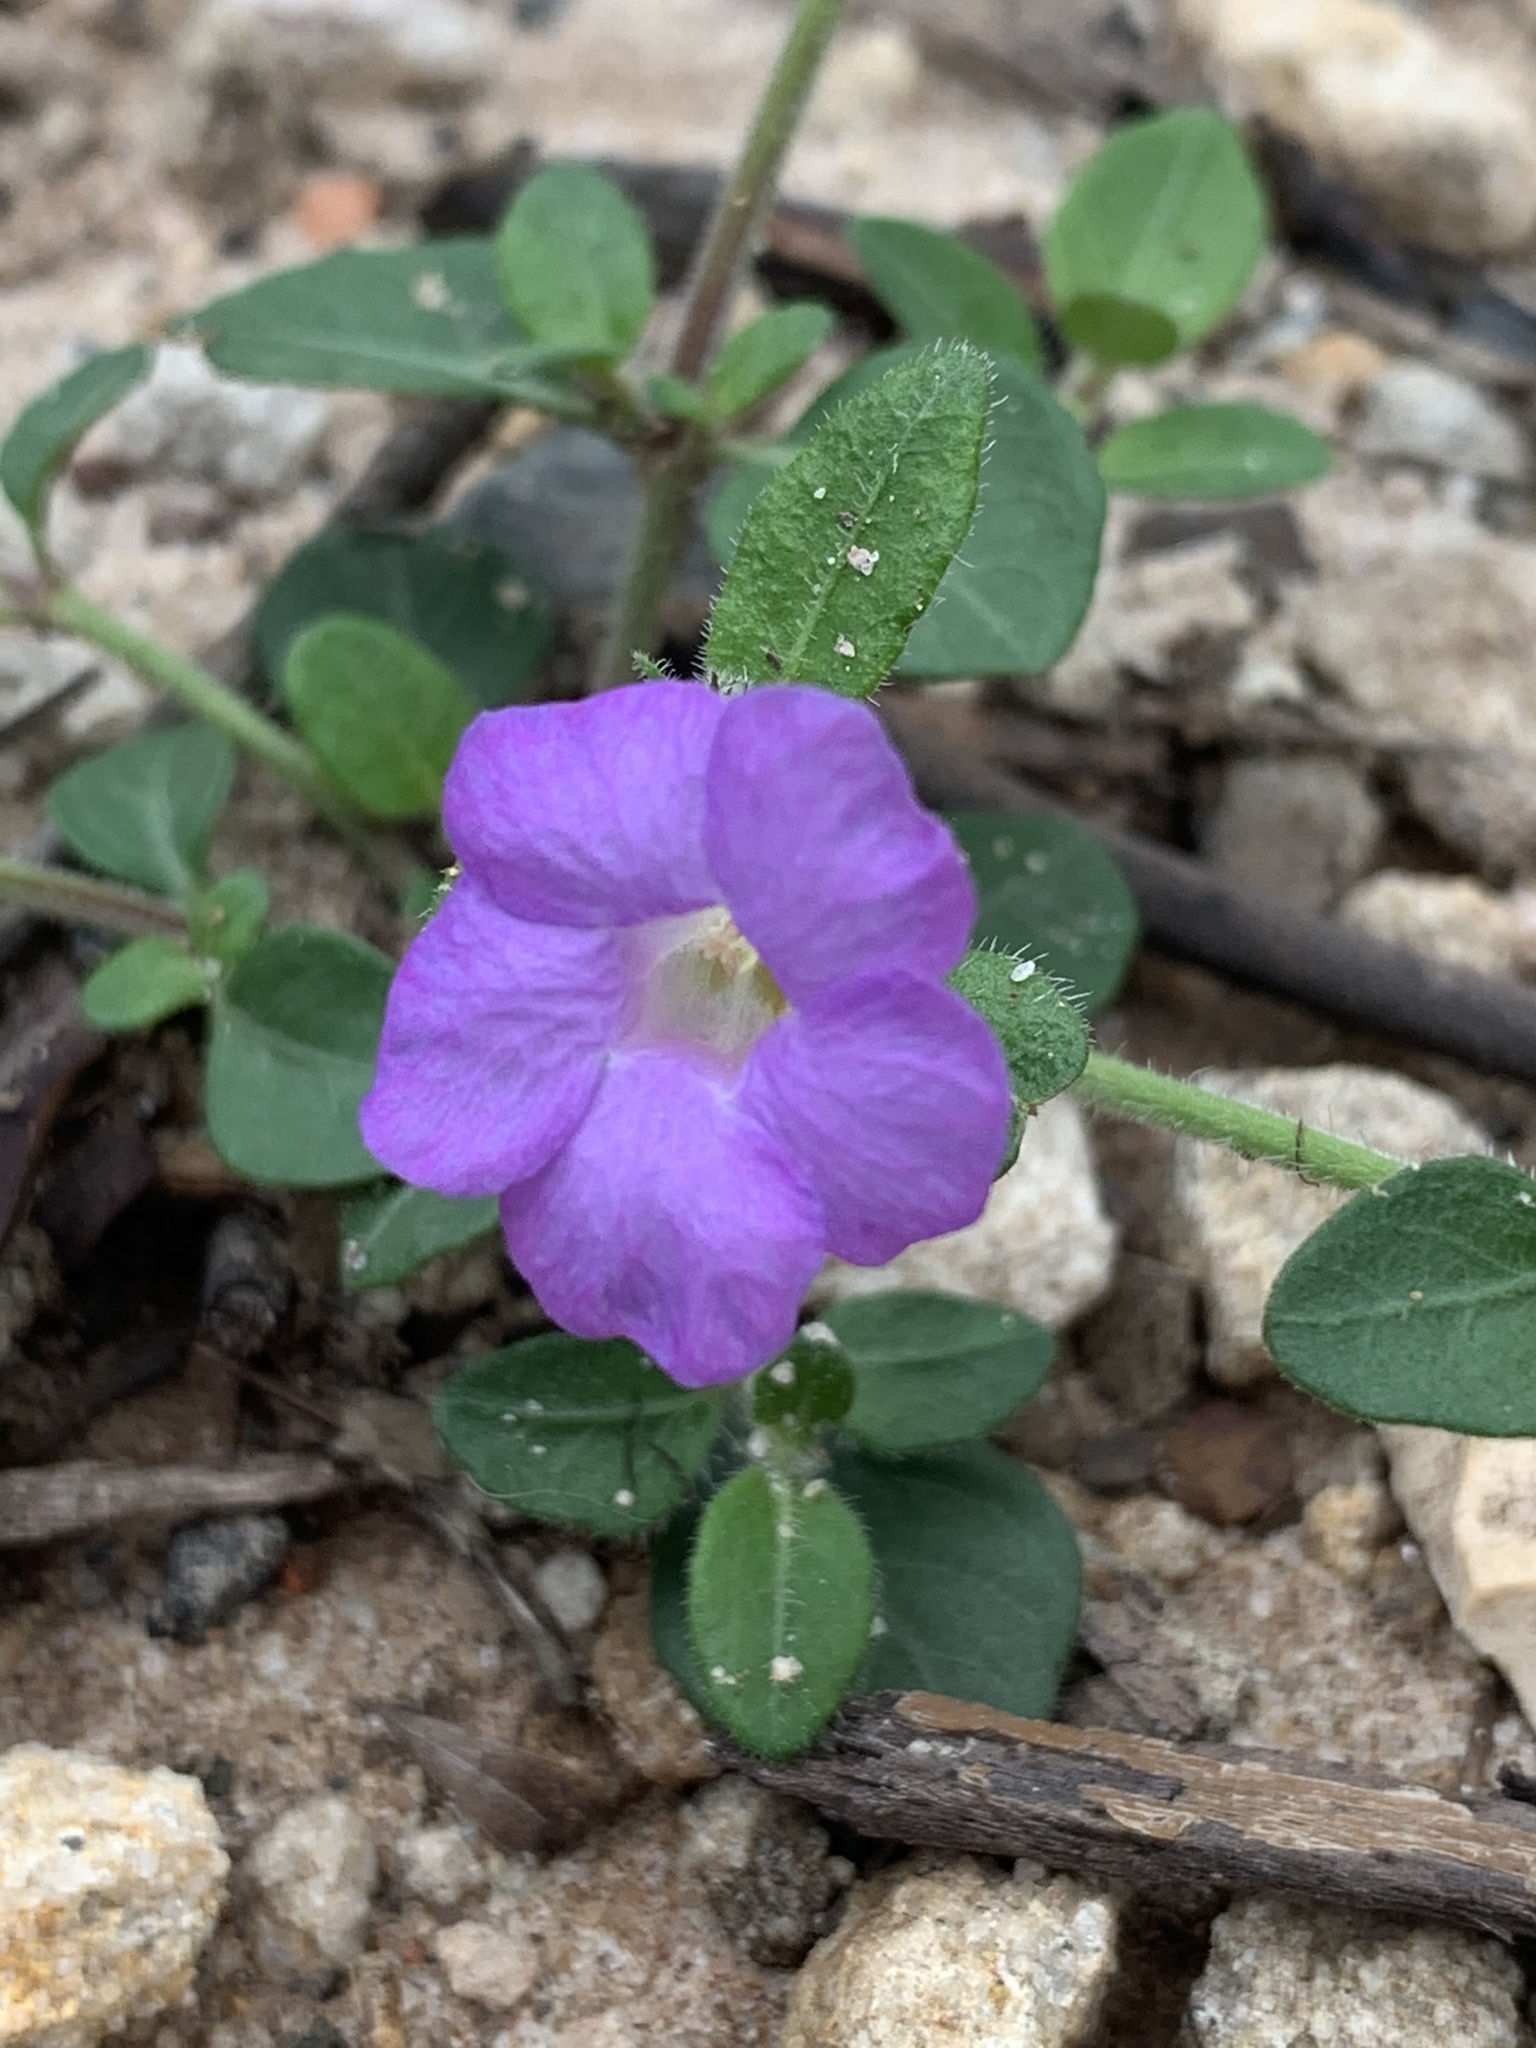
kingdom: Plantae
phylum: Tracheophyta
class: Magnoliopsida
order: Lamiales
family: Acanthaceae
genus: Brunoniella
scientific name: Brunoniella australis
